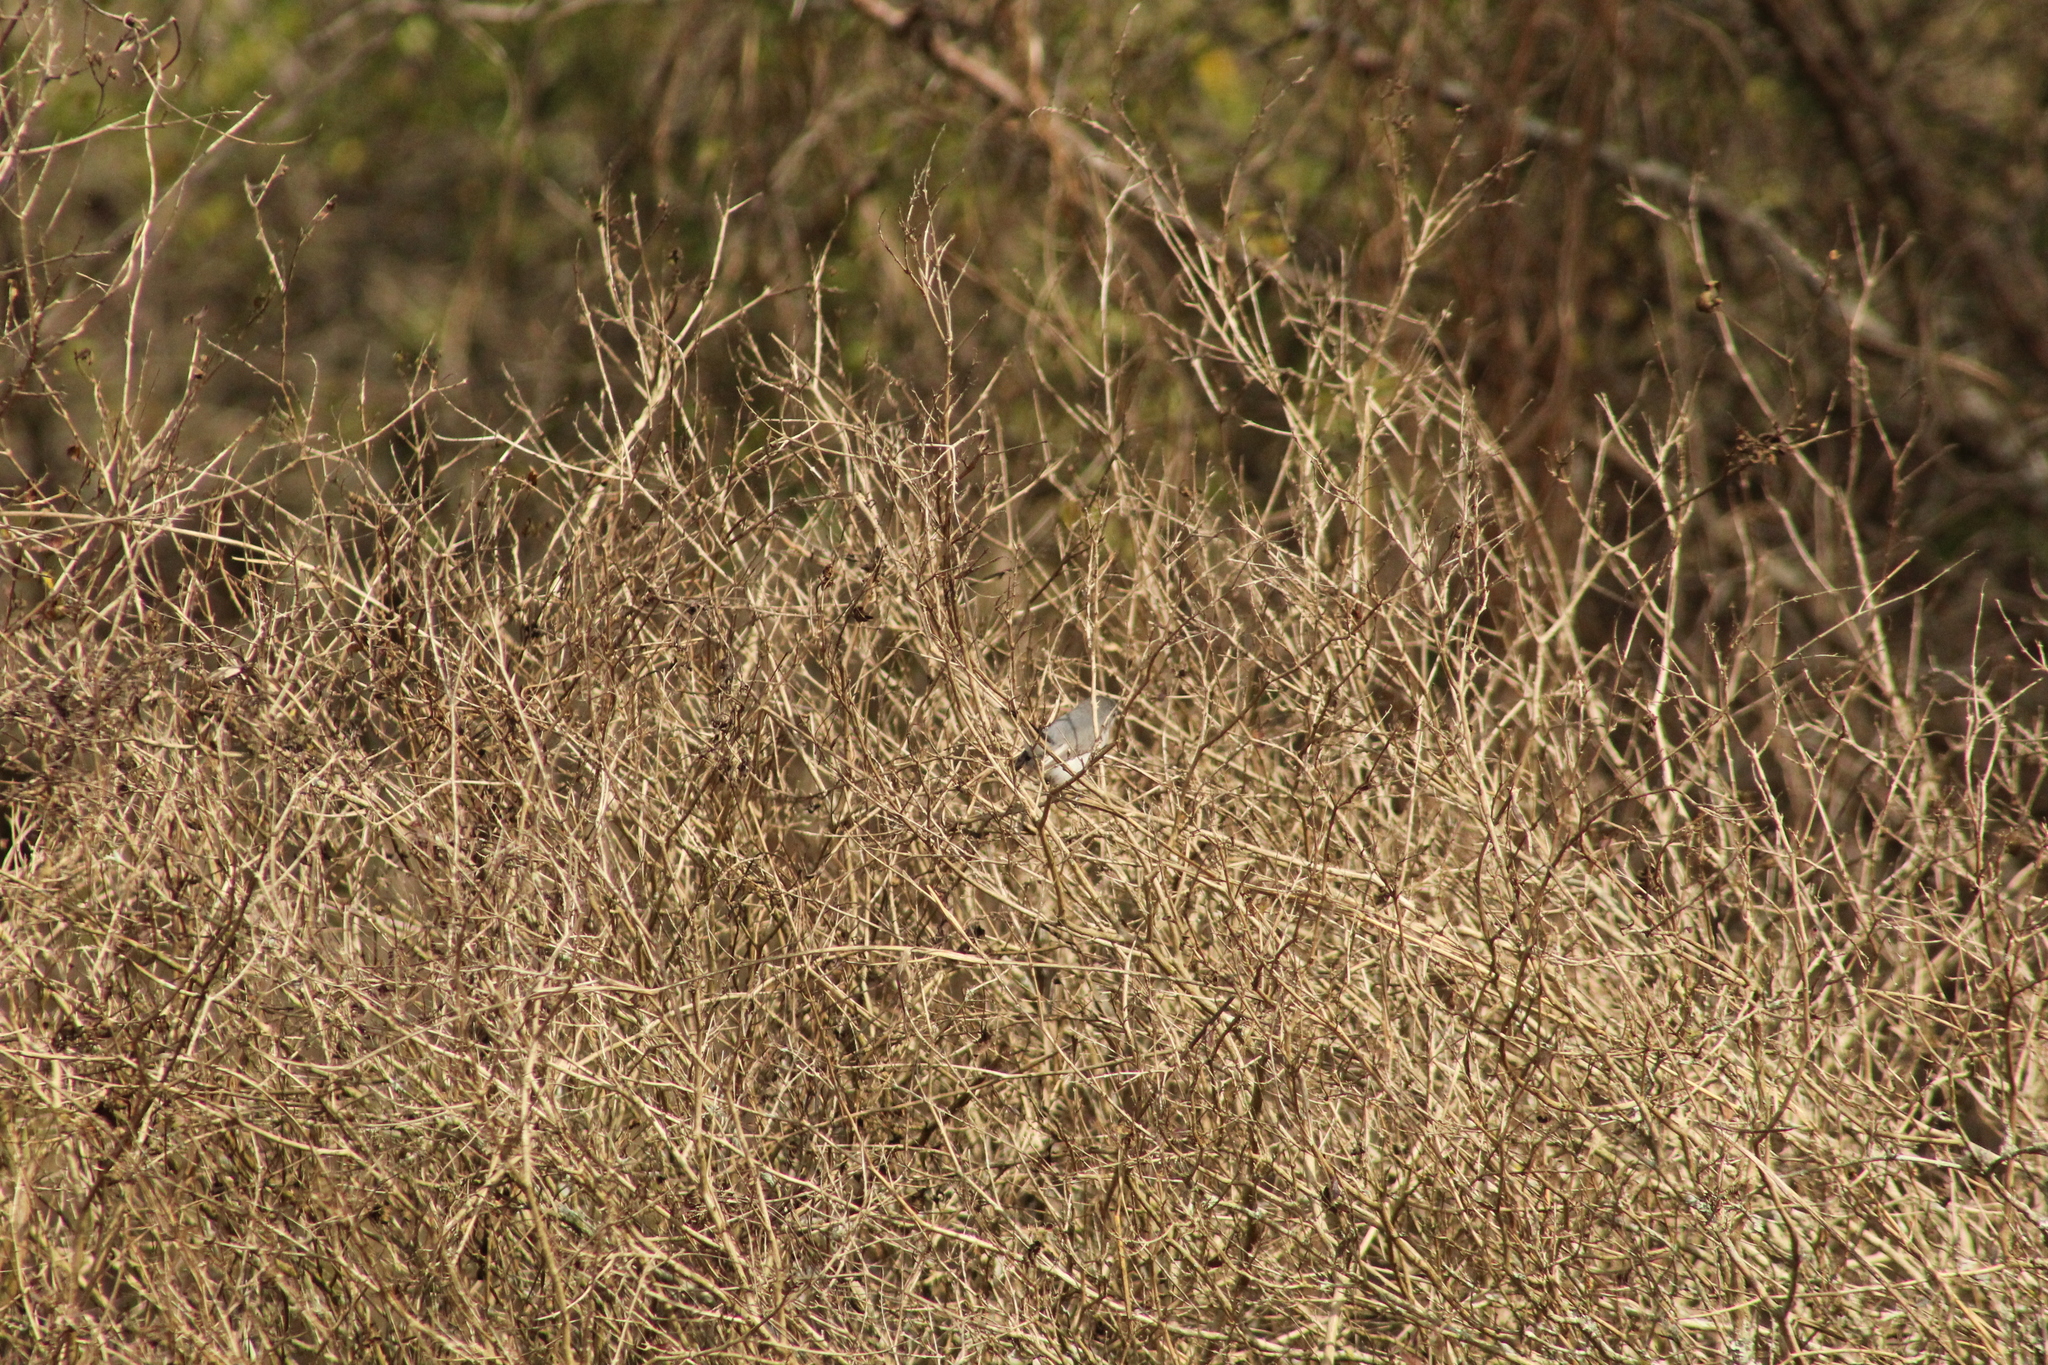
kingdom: Animalia
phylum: Chordata
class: Aves
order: Passeriformes
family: Polioptilidae
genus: Polioptila
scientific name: Polioptila caerulea
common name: Blue-gray gnatcatcher
